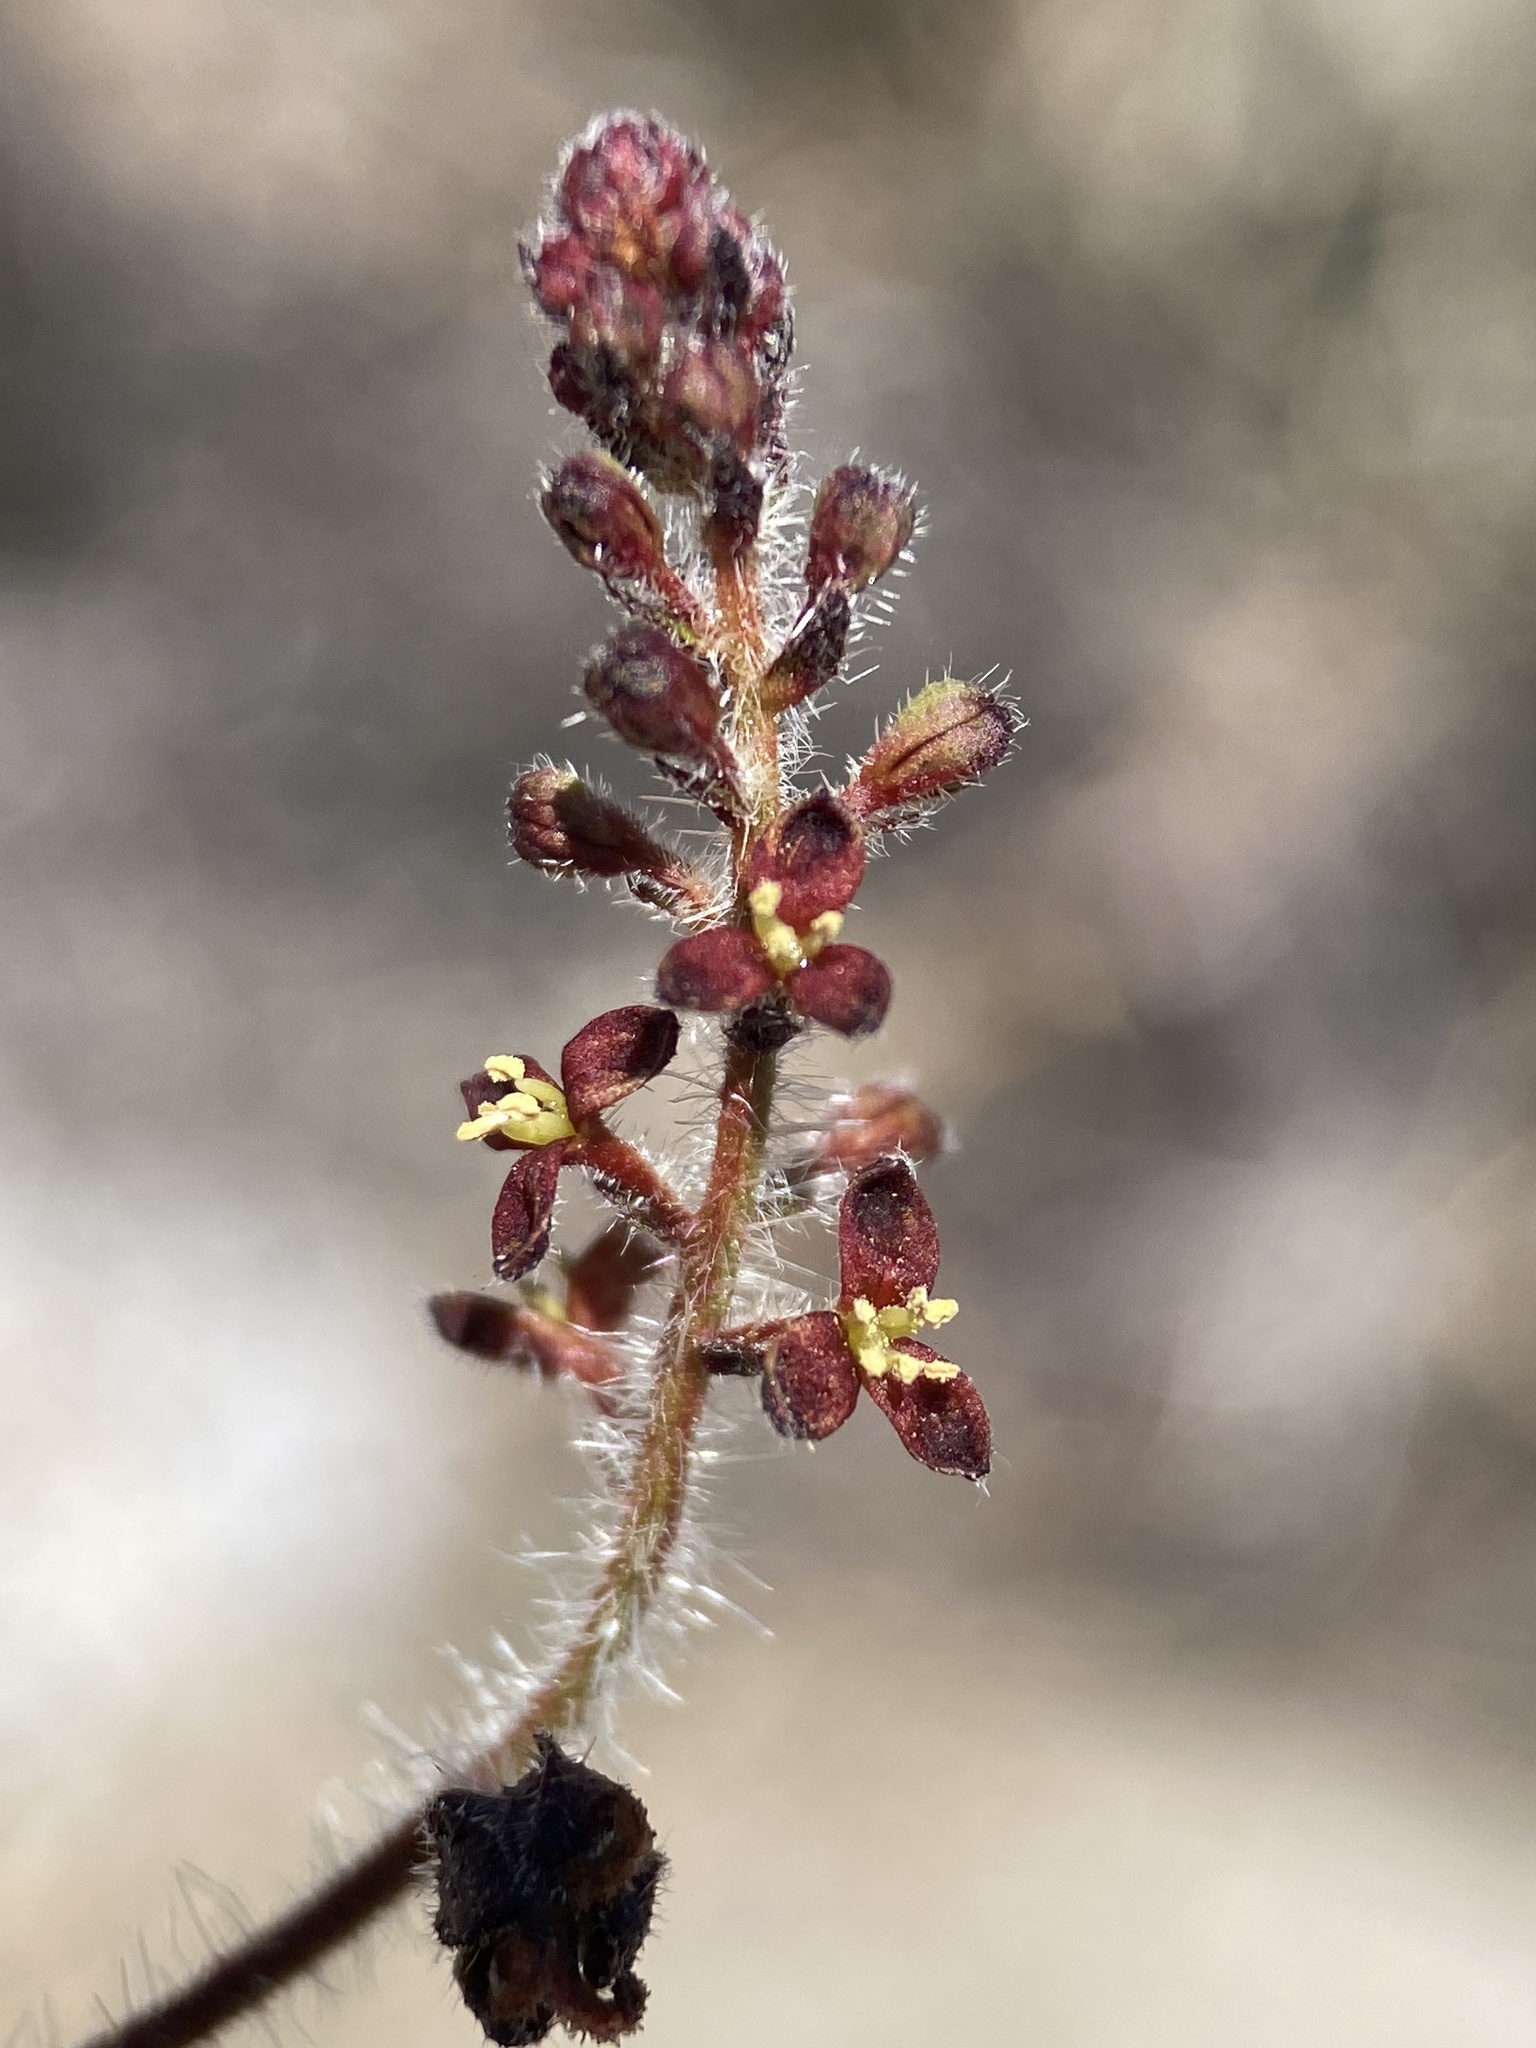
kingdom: Plantae
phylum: Tracheophyta
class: Magnoliopsida
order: Malpighiales
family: Euphorbiaceae
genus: Tragia
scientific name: Tragia nepetifolia
